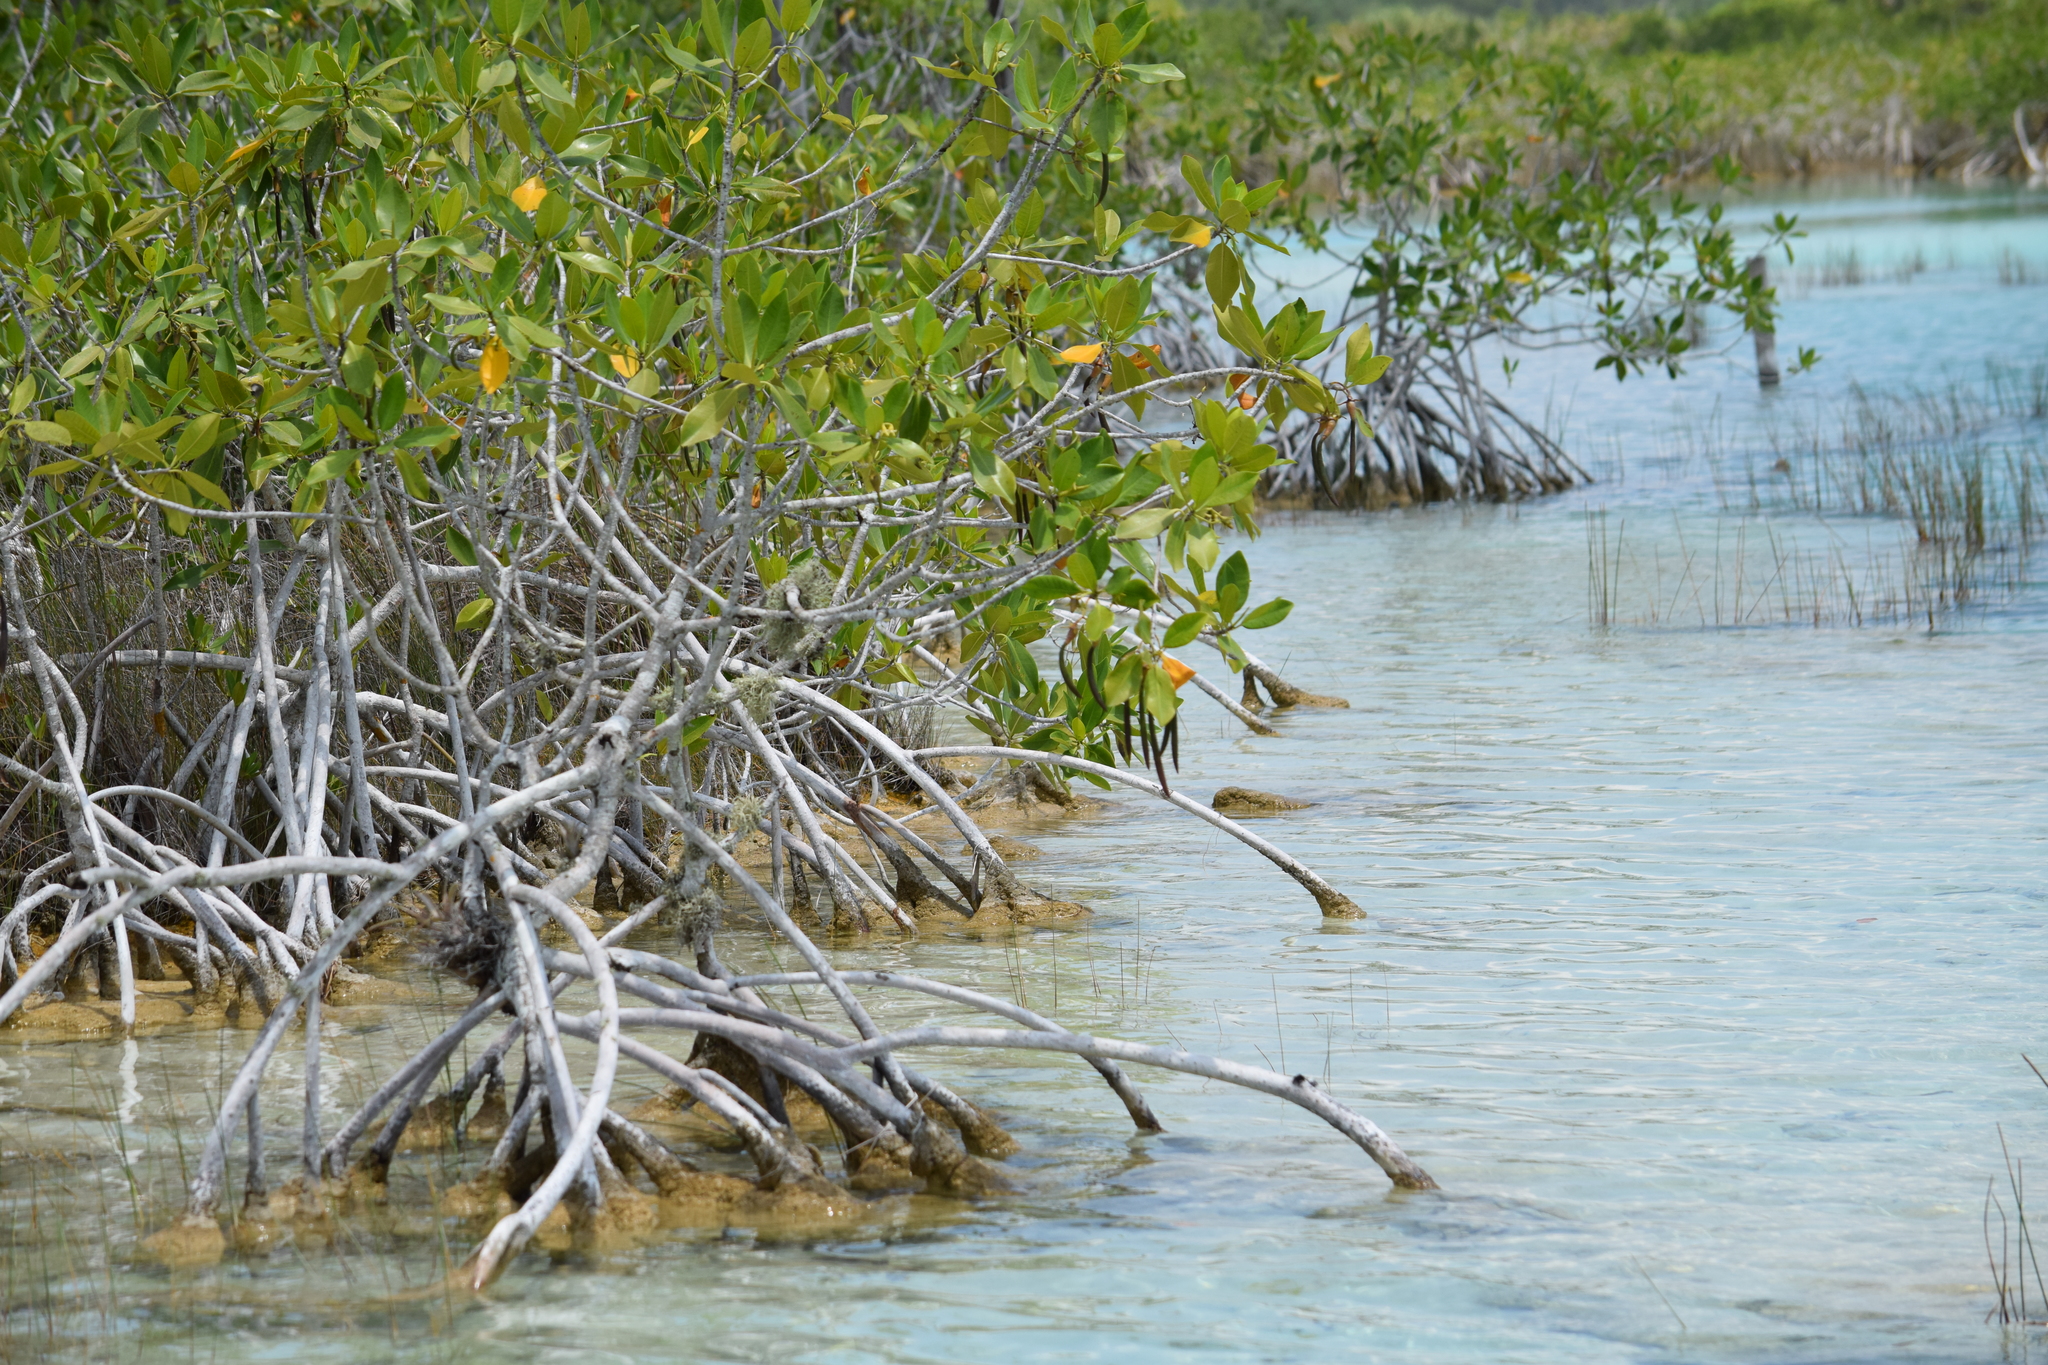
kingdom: Plantae
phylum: Tracheophyta
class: Magnoliopsida
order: Malpighiales
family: Rhizophoraceae
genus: Rhizophora
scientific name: Rhizophora mangle
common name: Red mangrove
